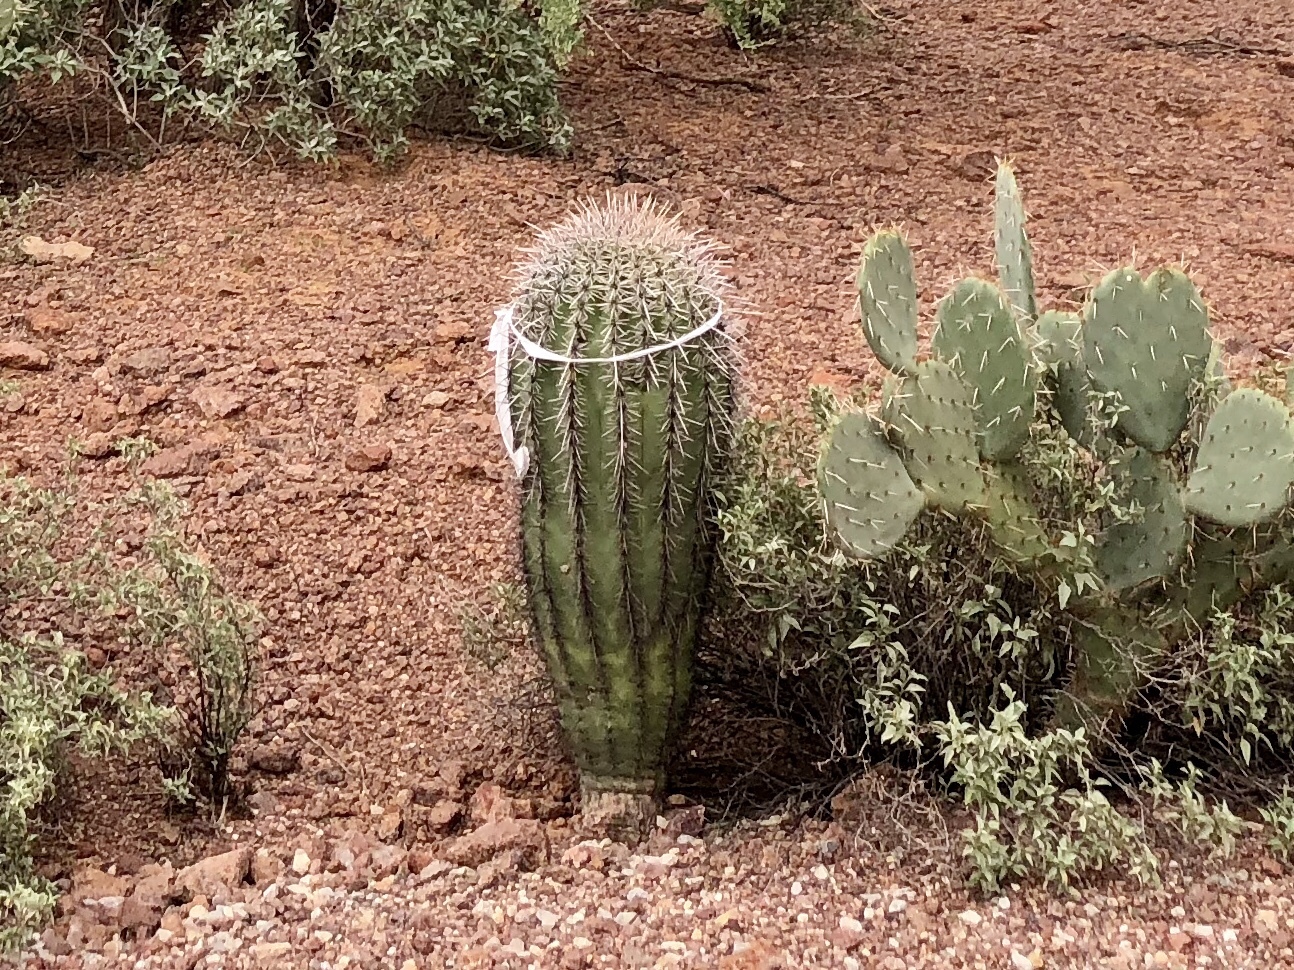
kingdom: Plantae
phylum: Tracheophyta
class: Magnoliopsida
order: Caryophyllales
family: Cactaceae
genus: Carnegiea
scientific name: Carnegiea gigantea
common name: Saguaro
